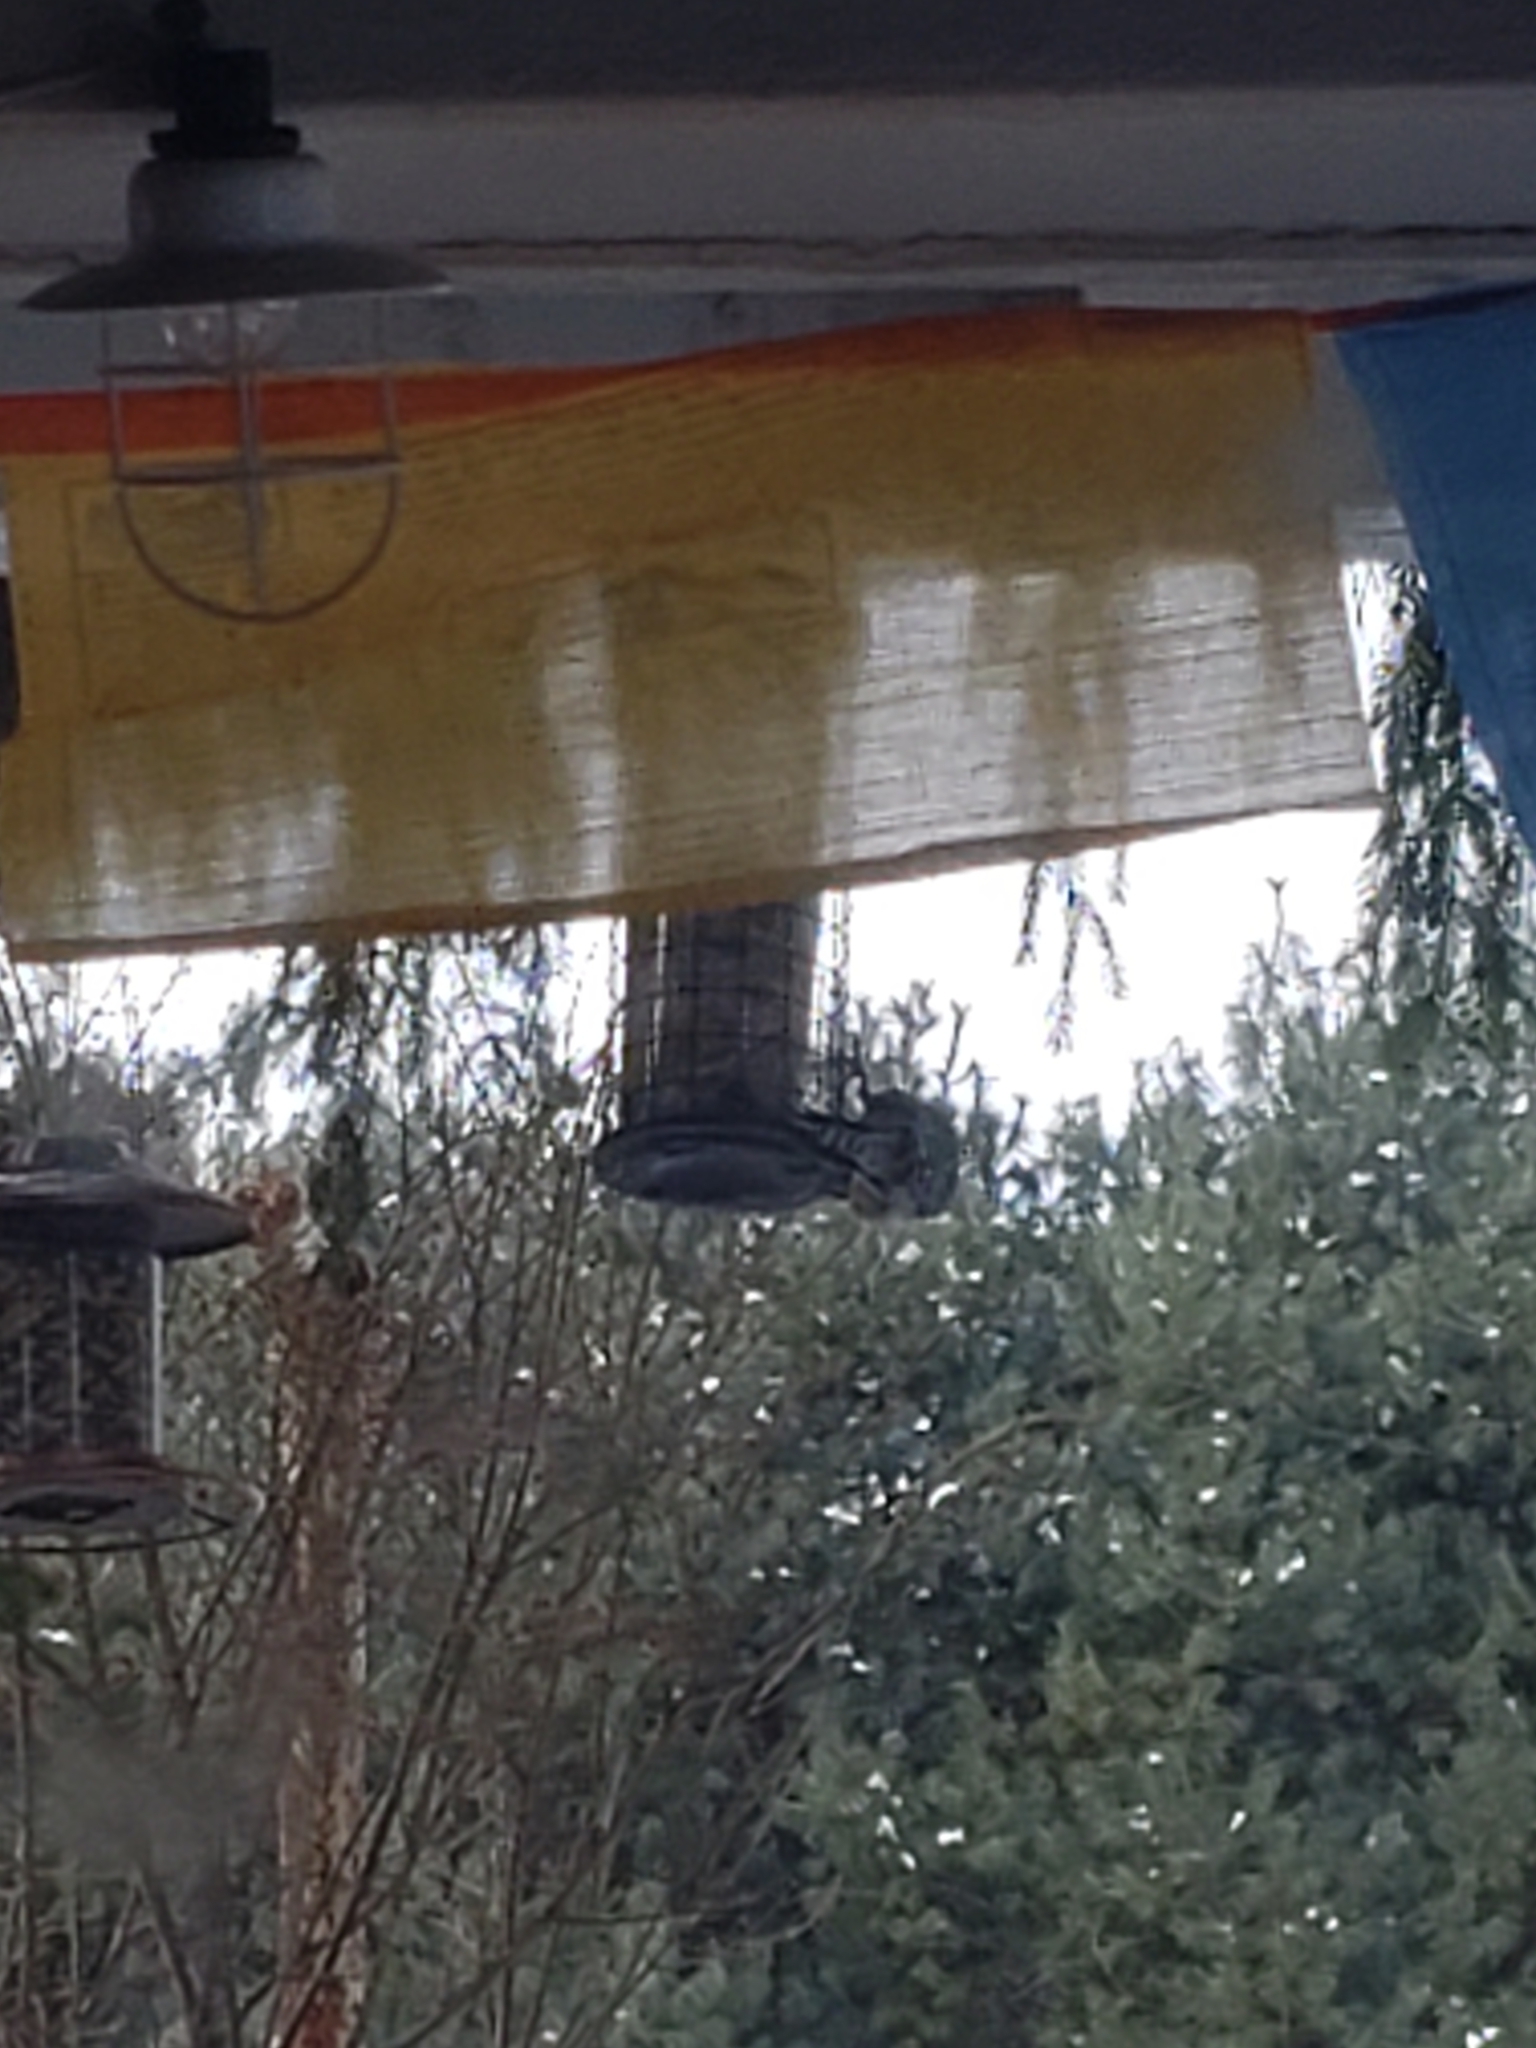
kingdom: Animalia
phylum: Chordata
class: Aves
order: Piciformes
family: Picidae
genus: Melanerpes
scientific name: Melanerpes carolinus
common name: Red-bellied woodpecker
